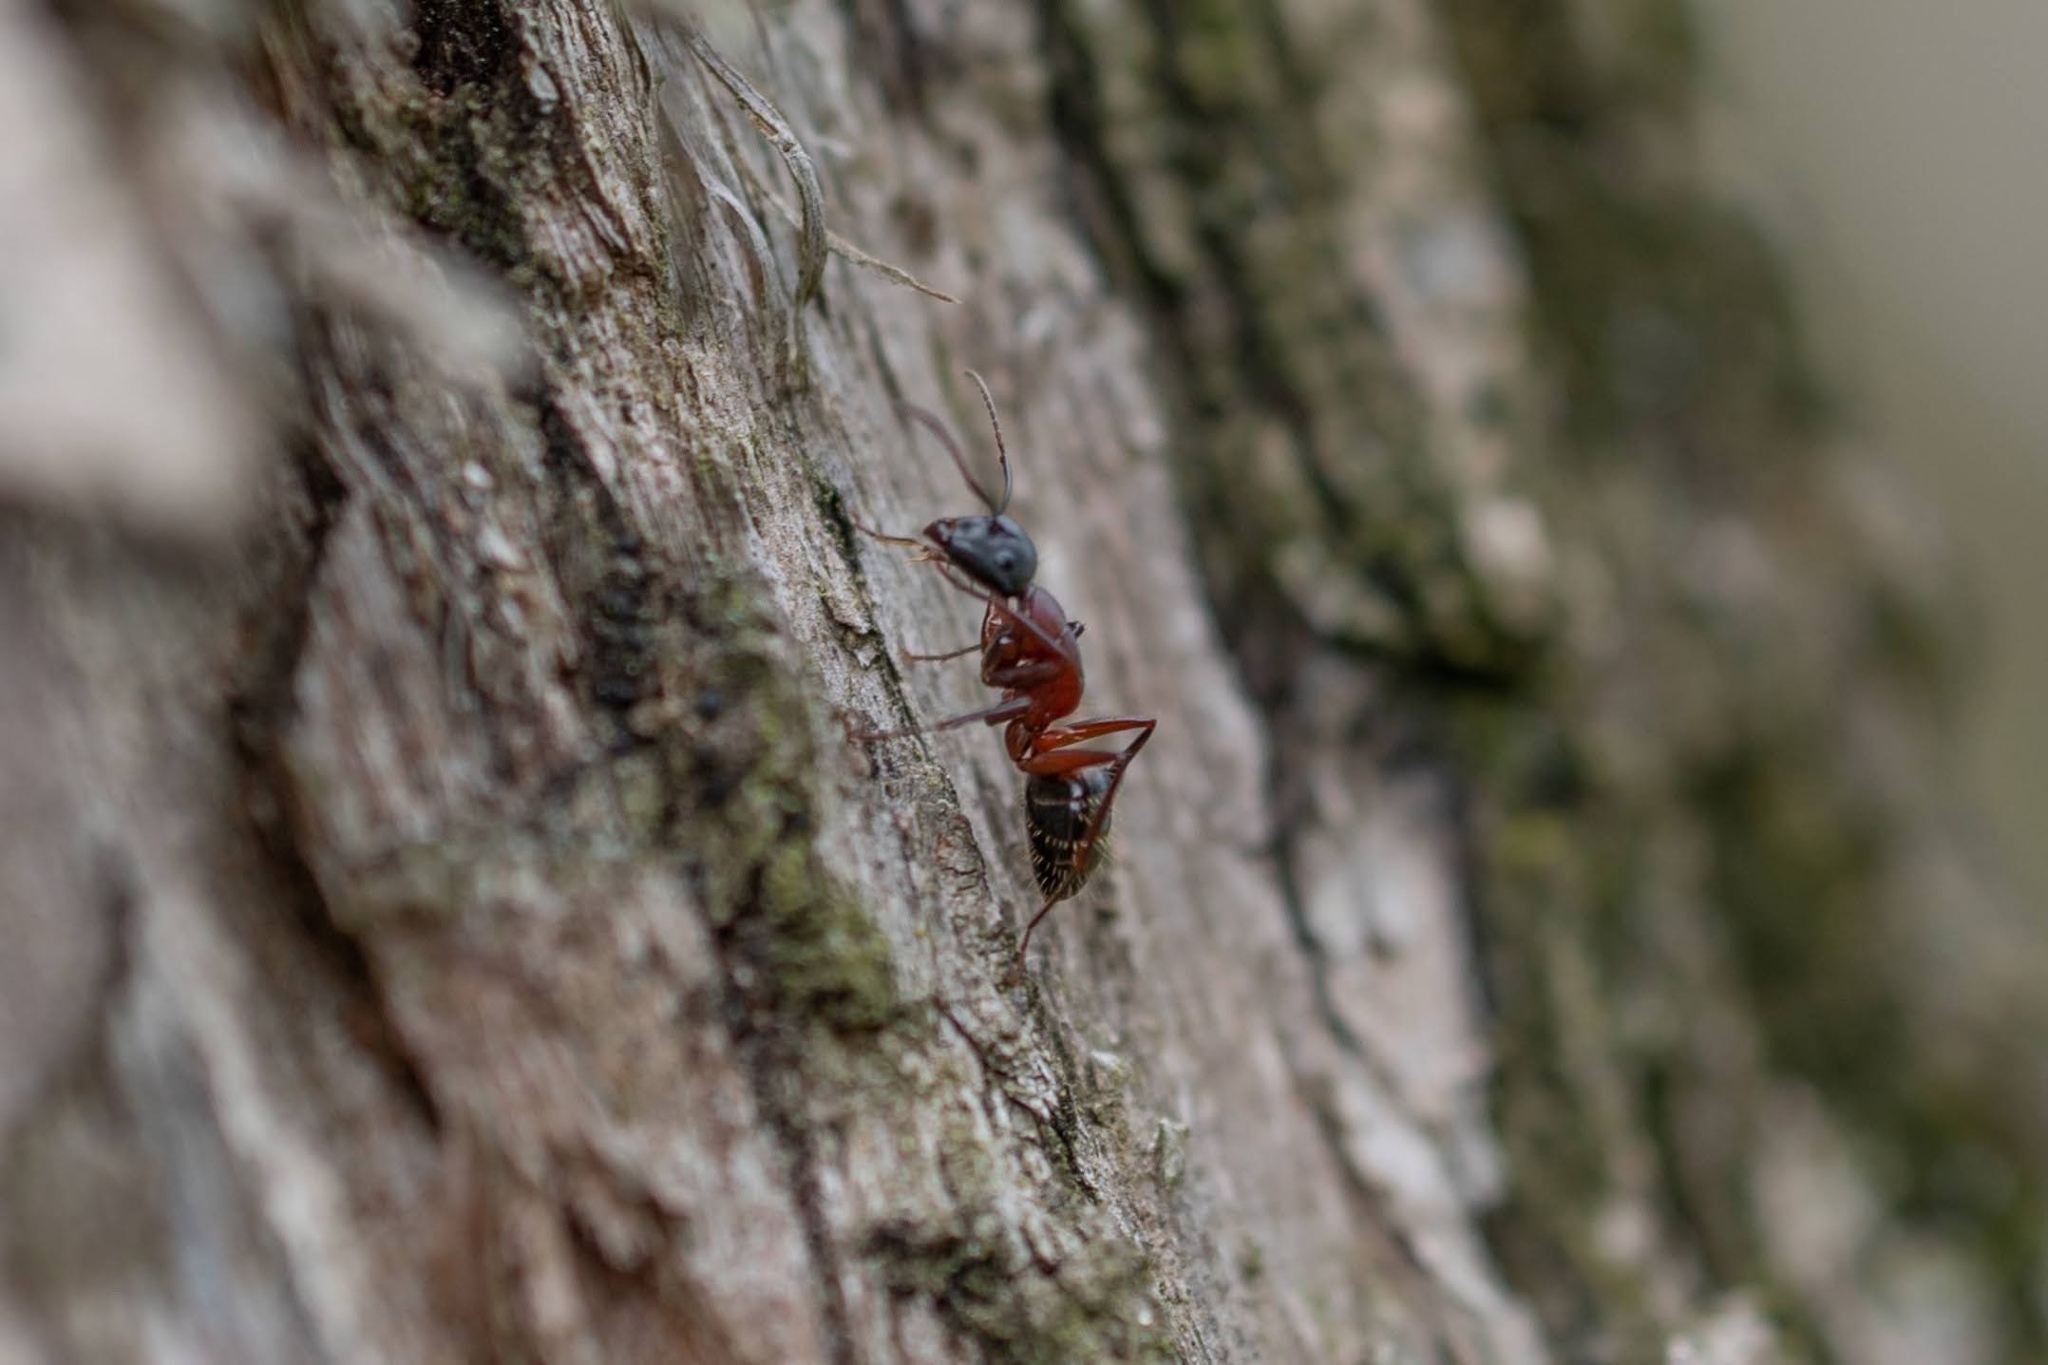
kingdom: Animalia
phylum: Arthropoda
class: Insecta
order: Hymenoptera
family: Formicidae
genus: Camponotus
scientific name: Camponotus ligniperdus
